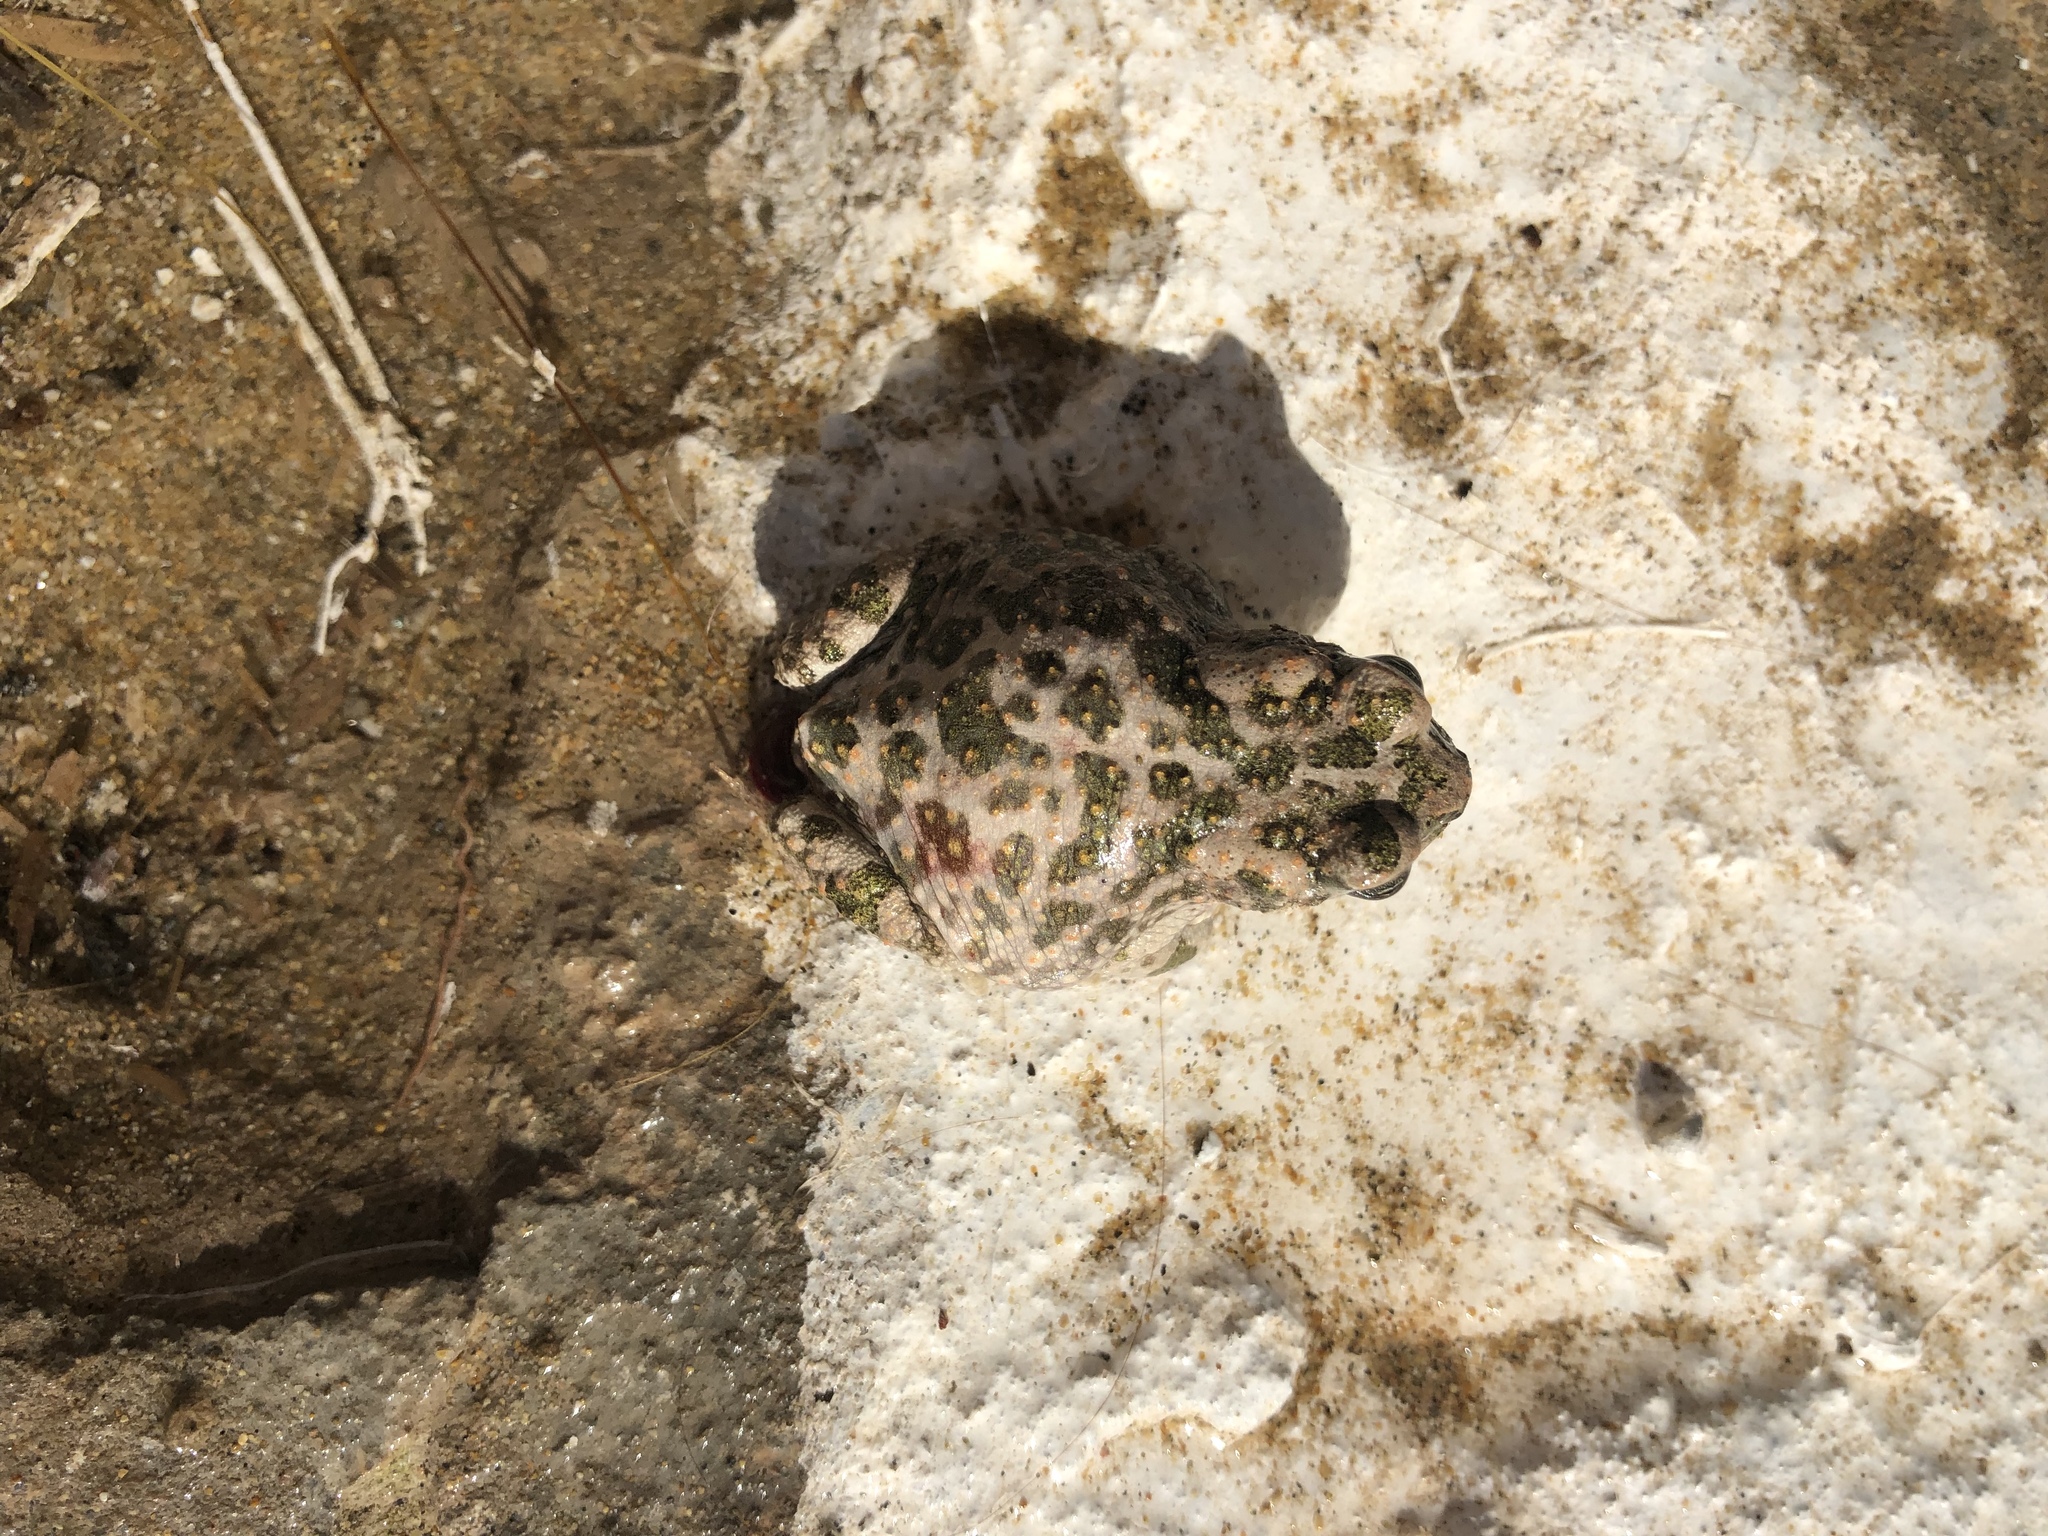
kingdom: Animalia
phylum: Chordata
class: Amphibia
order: Anura
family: Bufonidae
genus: Bufotes
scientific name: Bufotes viridis
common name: European green toad
